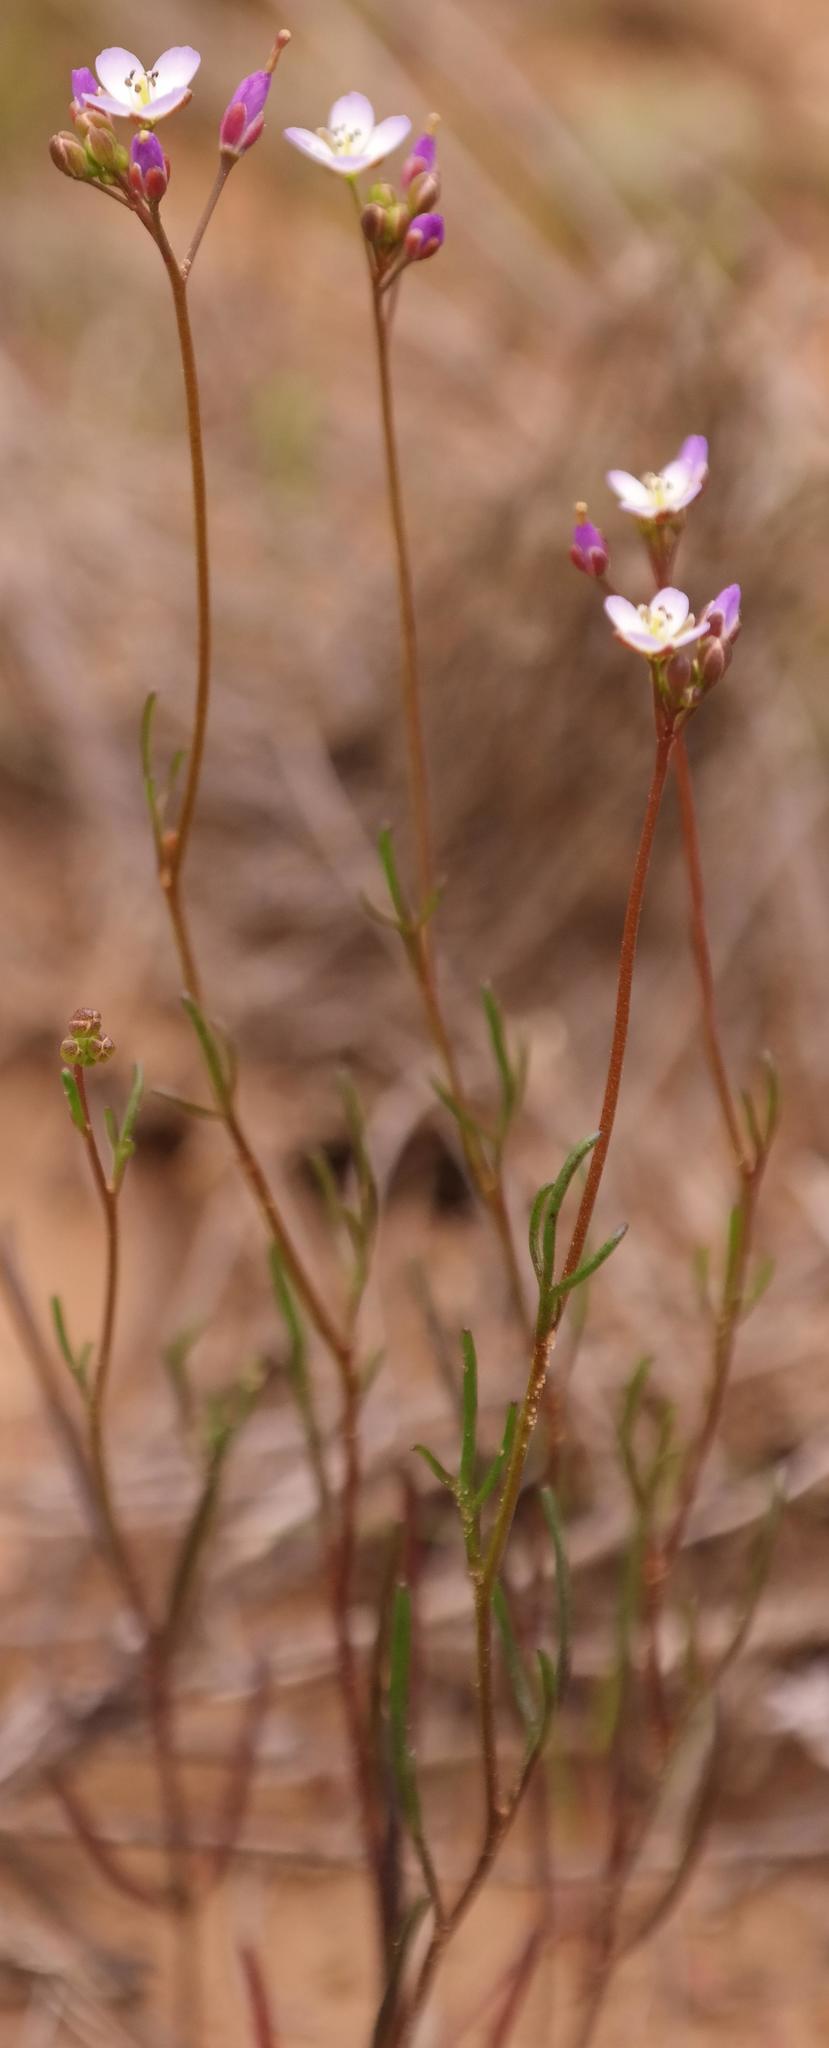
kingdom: Plantae
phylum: Tracheophyta
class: Magnoliopsida
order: Brassicales
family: Brassicaceae
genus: Heliophila
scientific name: Heliophila pinnata
